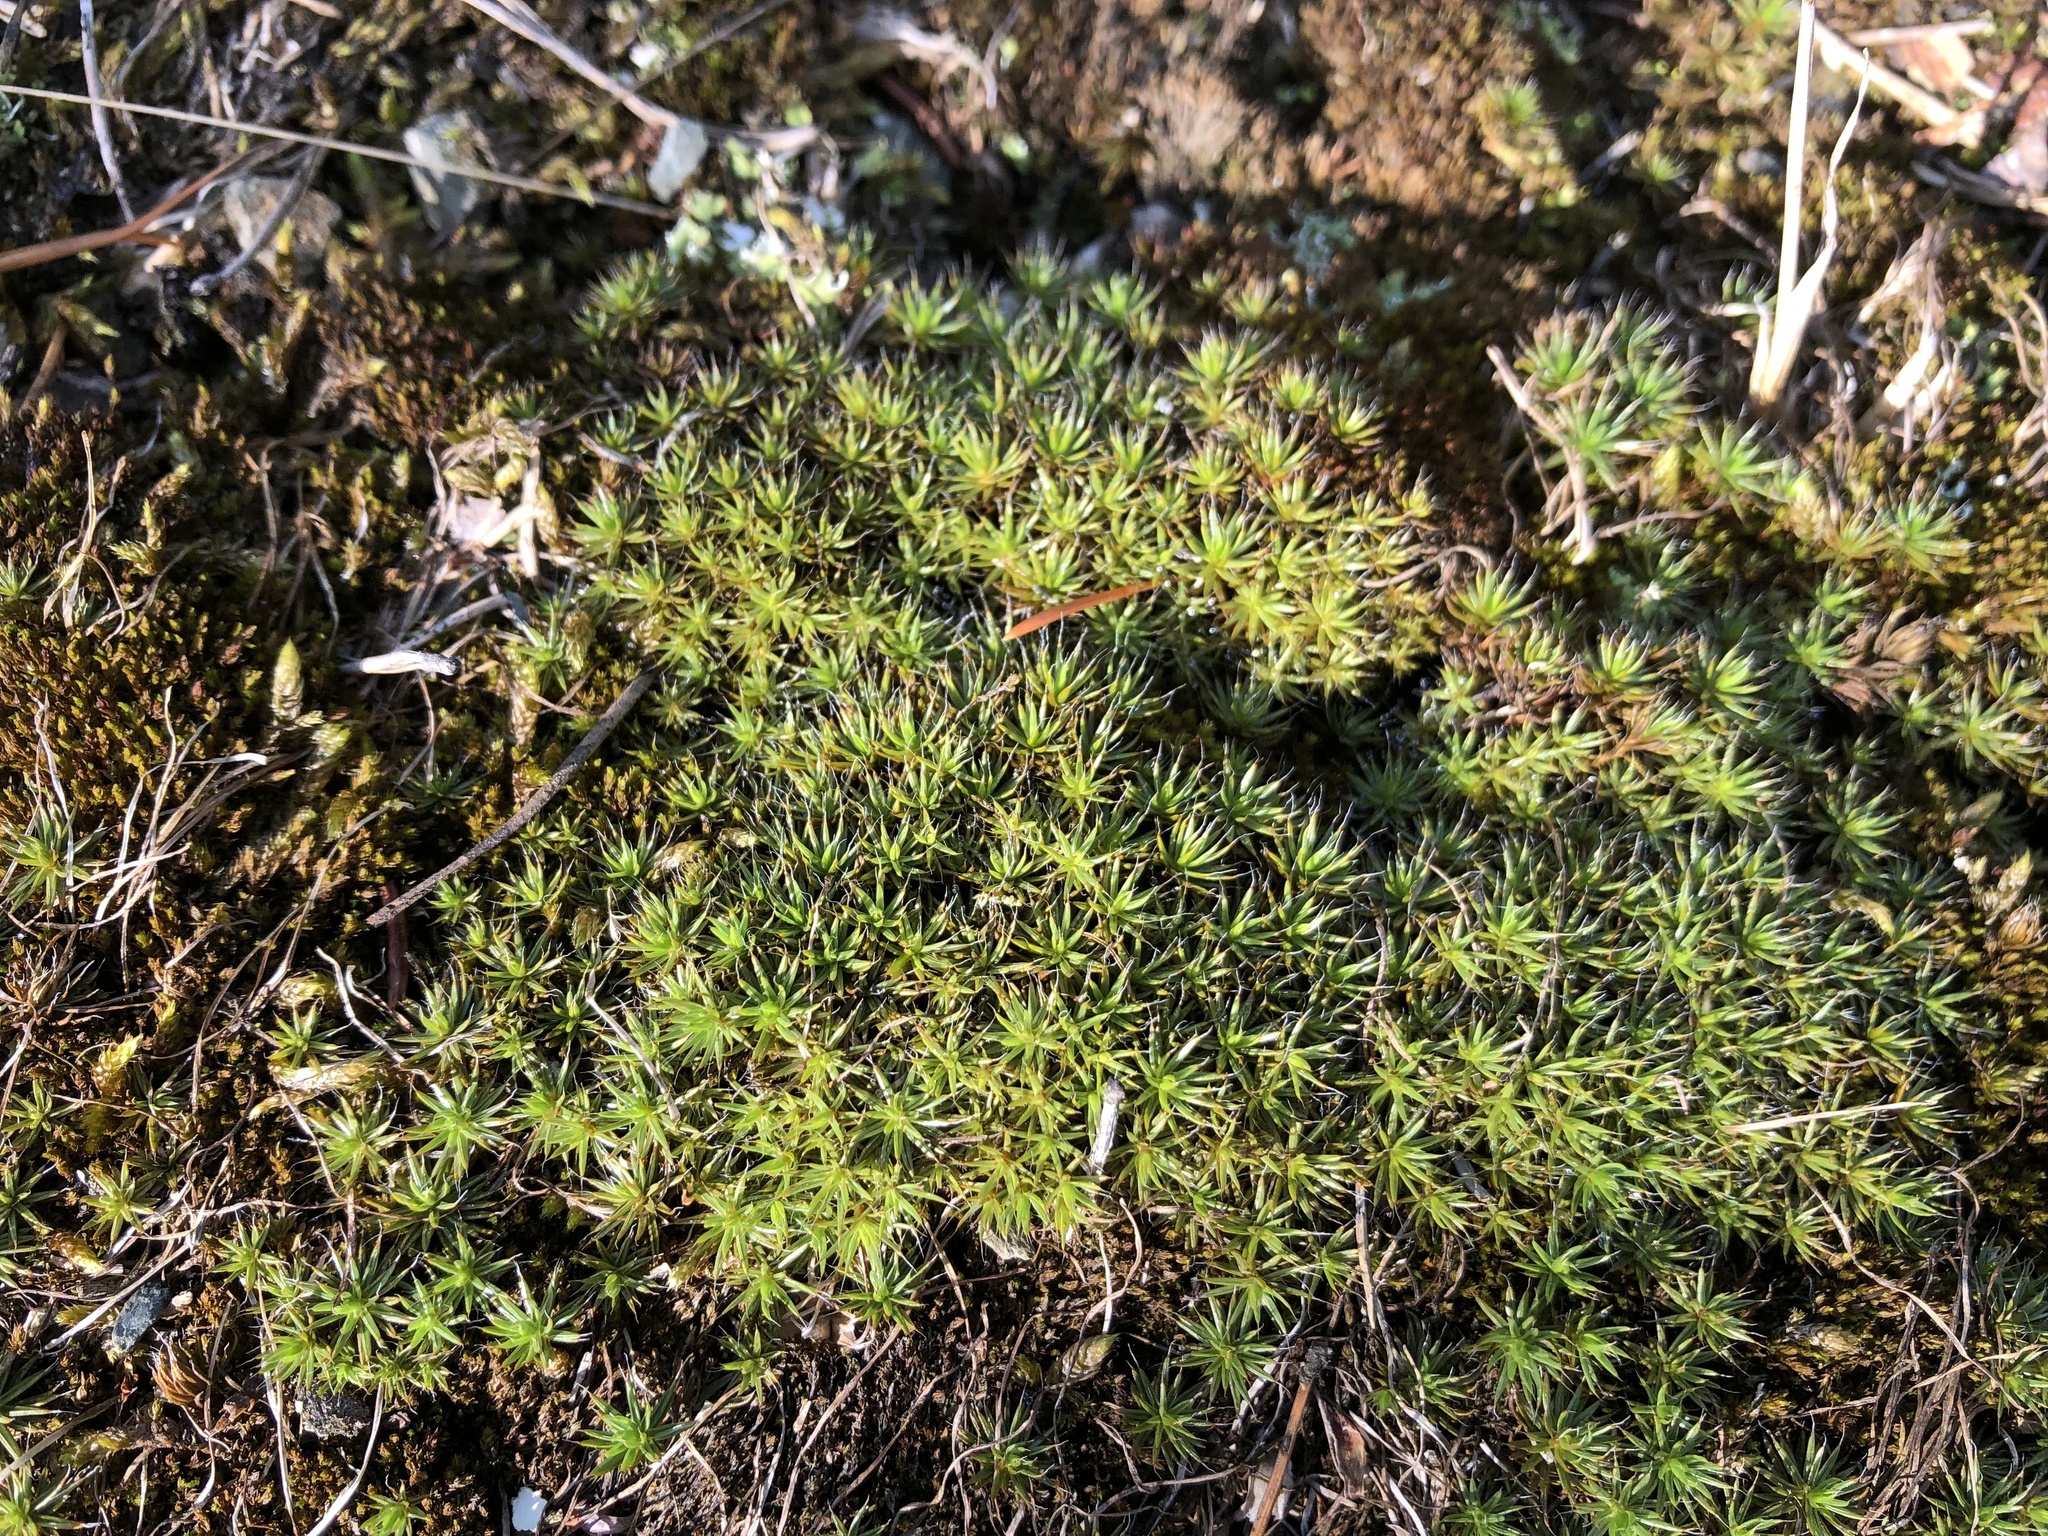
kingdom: Plantae
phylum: Bryophyta
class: Polytrichopsida
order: Polytrichales
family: Polytrichaceae
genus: Polytrichum
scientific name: Polytrichum piliferum
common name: Bristly haircap
